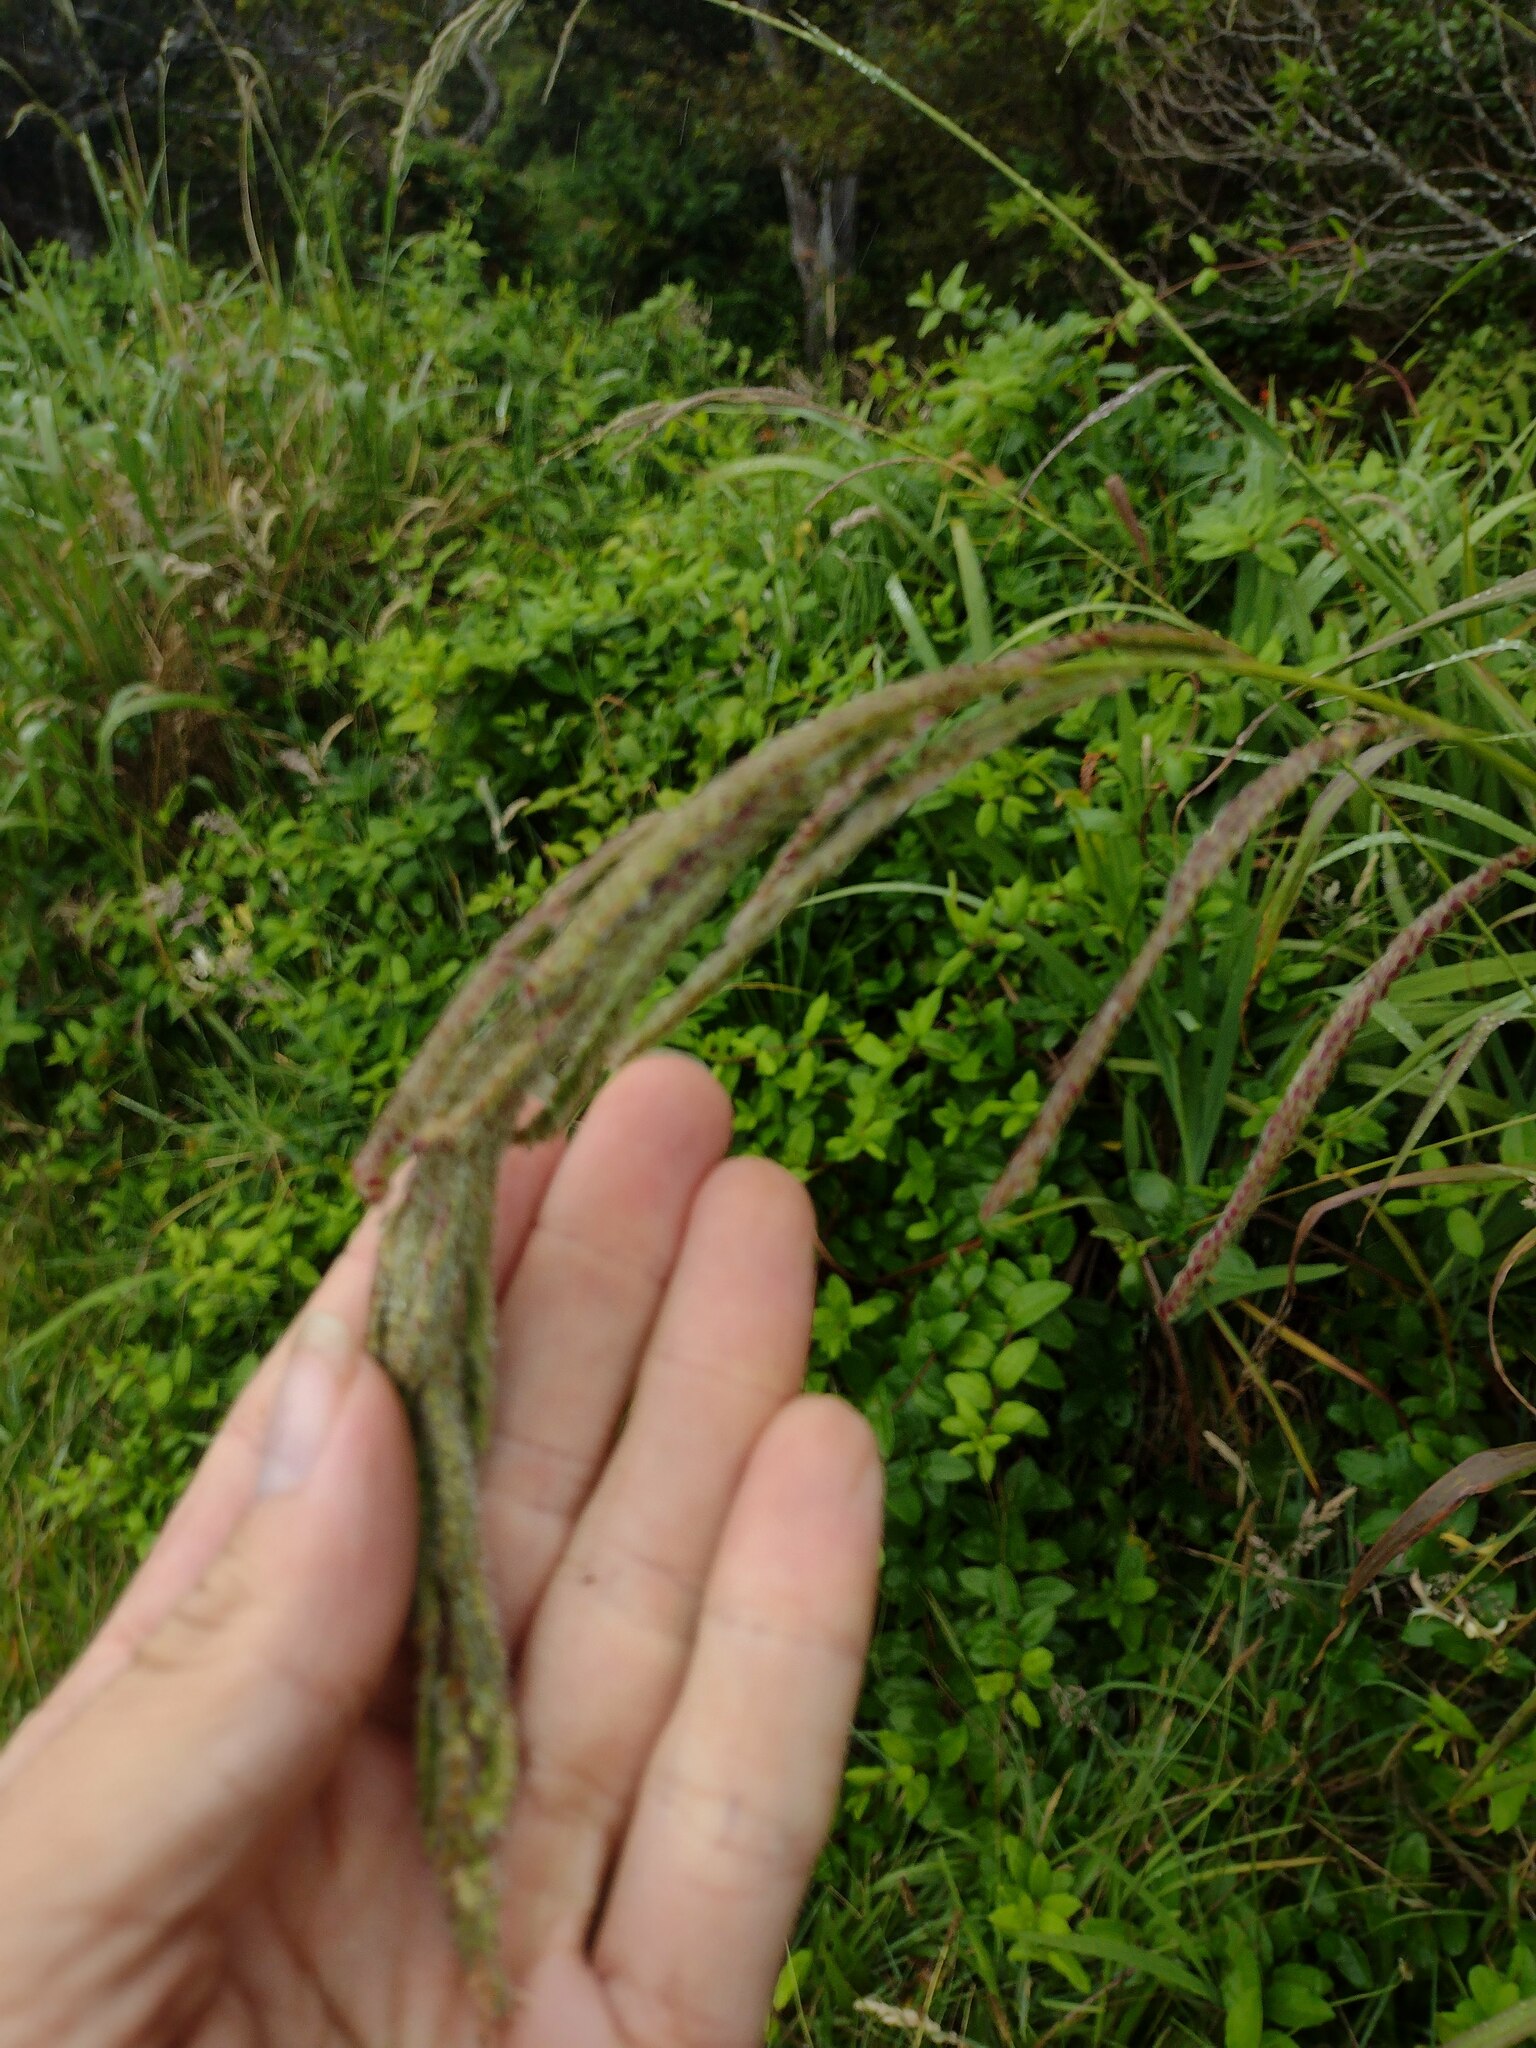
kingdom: Plantae
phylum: Tracheophyta
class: Liliopsida
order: Poales
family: Poaceae
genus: Paspalum
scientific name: Paspalum urvillei
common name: Vasey's grass
